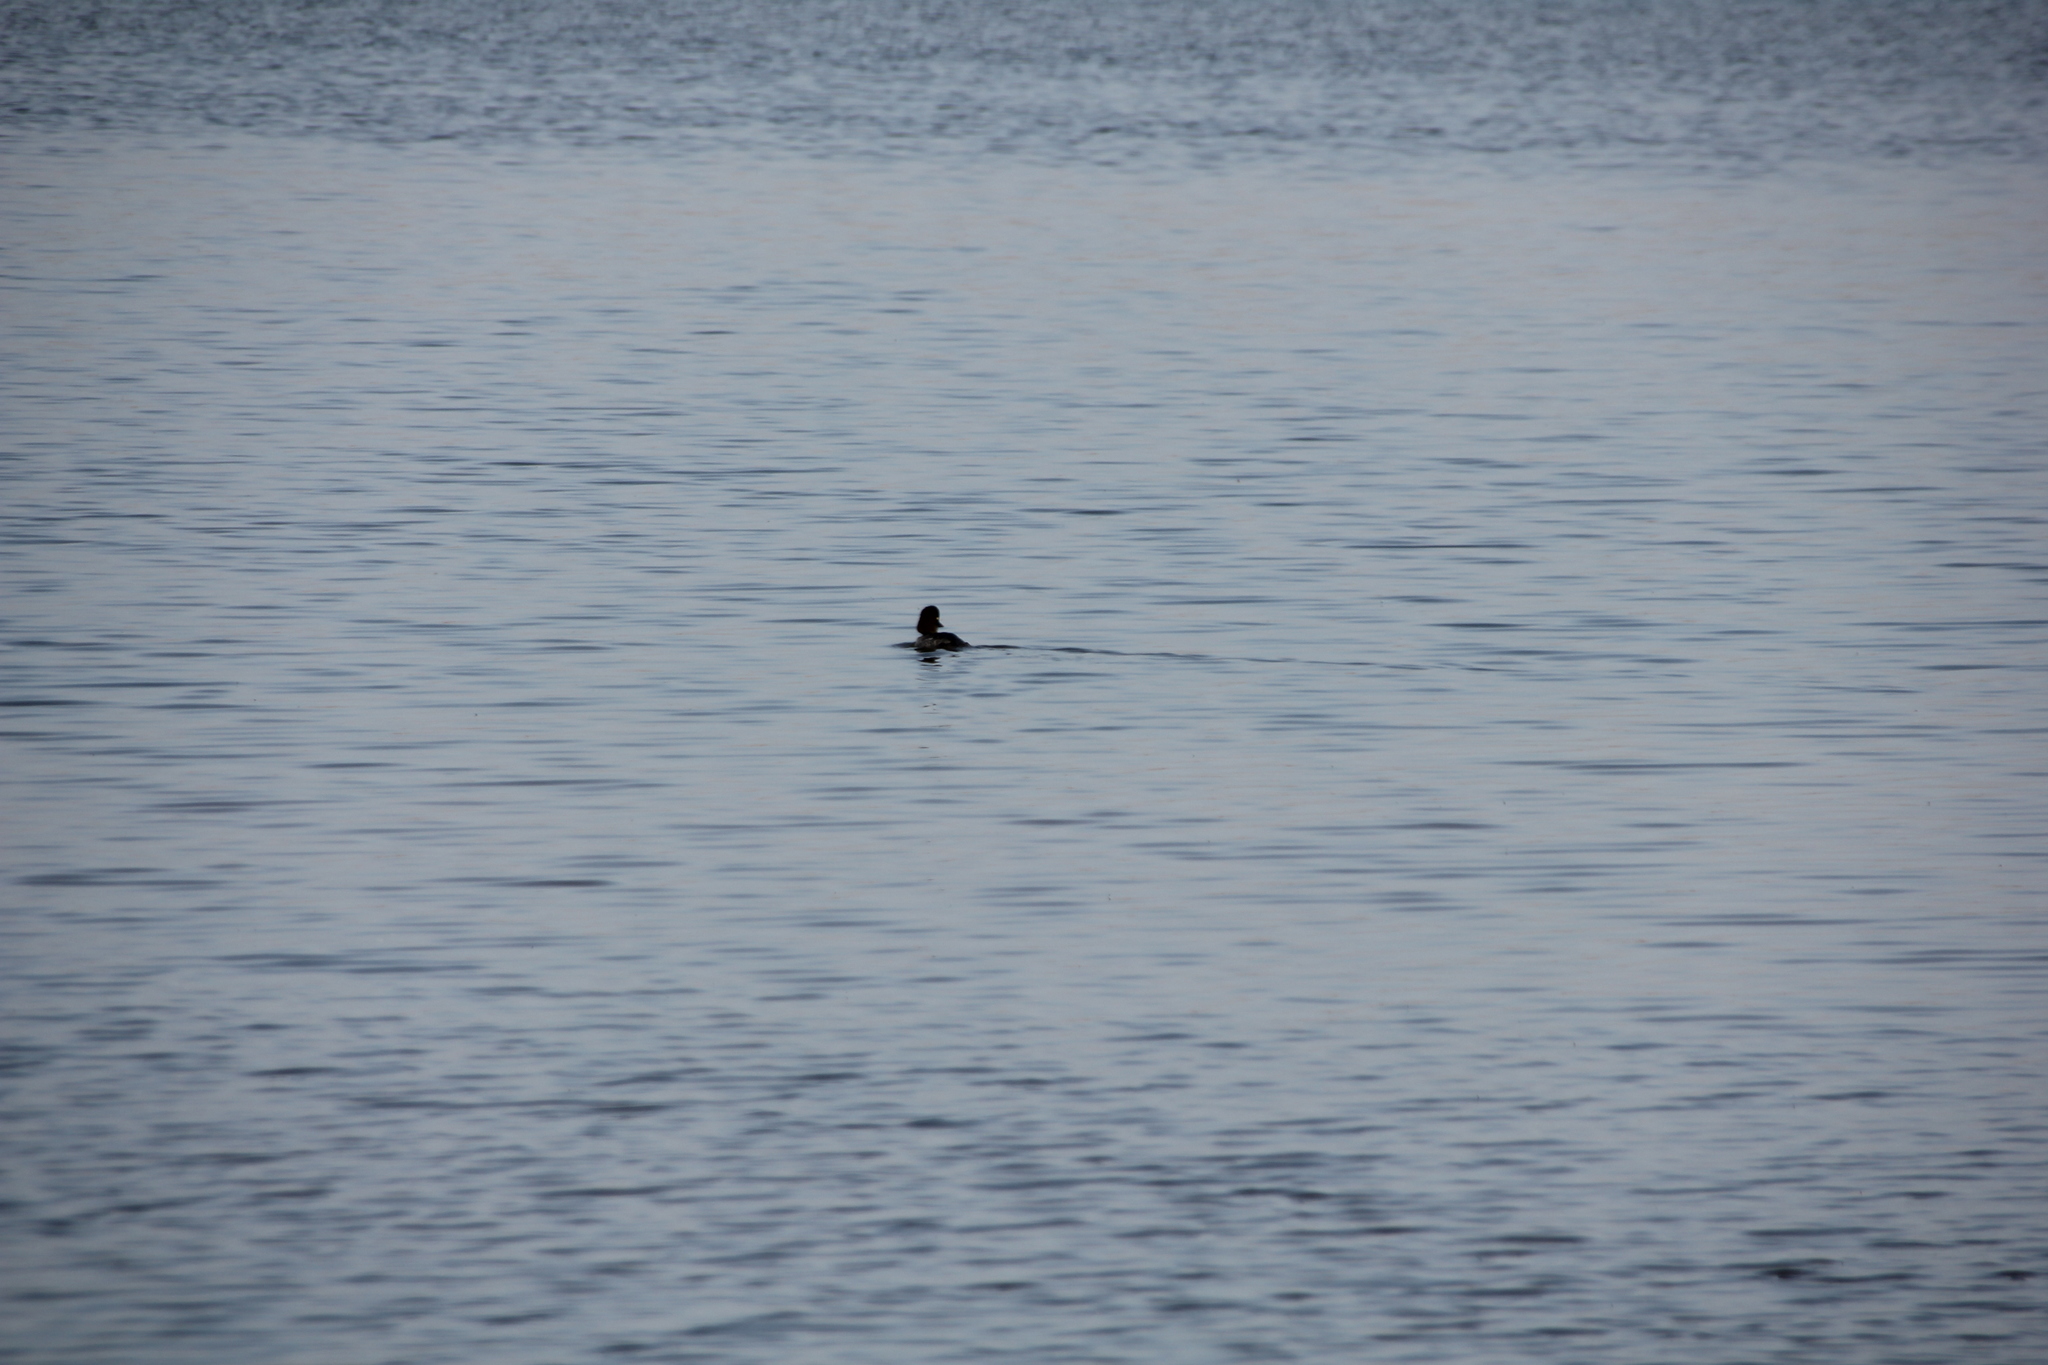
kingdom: Animalia
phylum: Chordata
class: Aves
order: Anseriformes
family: Anatidae
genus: Bucephala
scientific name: Bucephala clangula
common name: Common goldeneye
